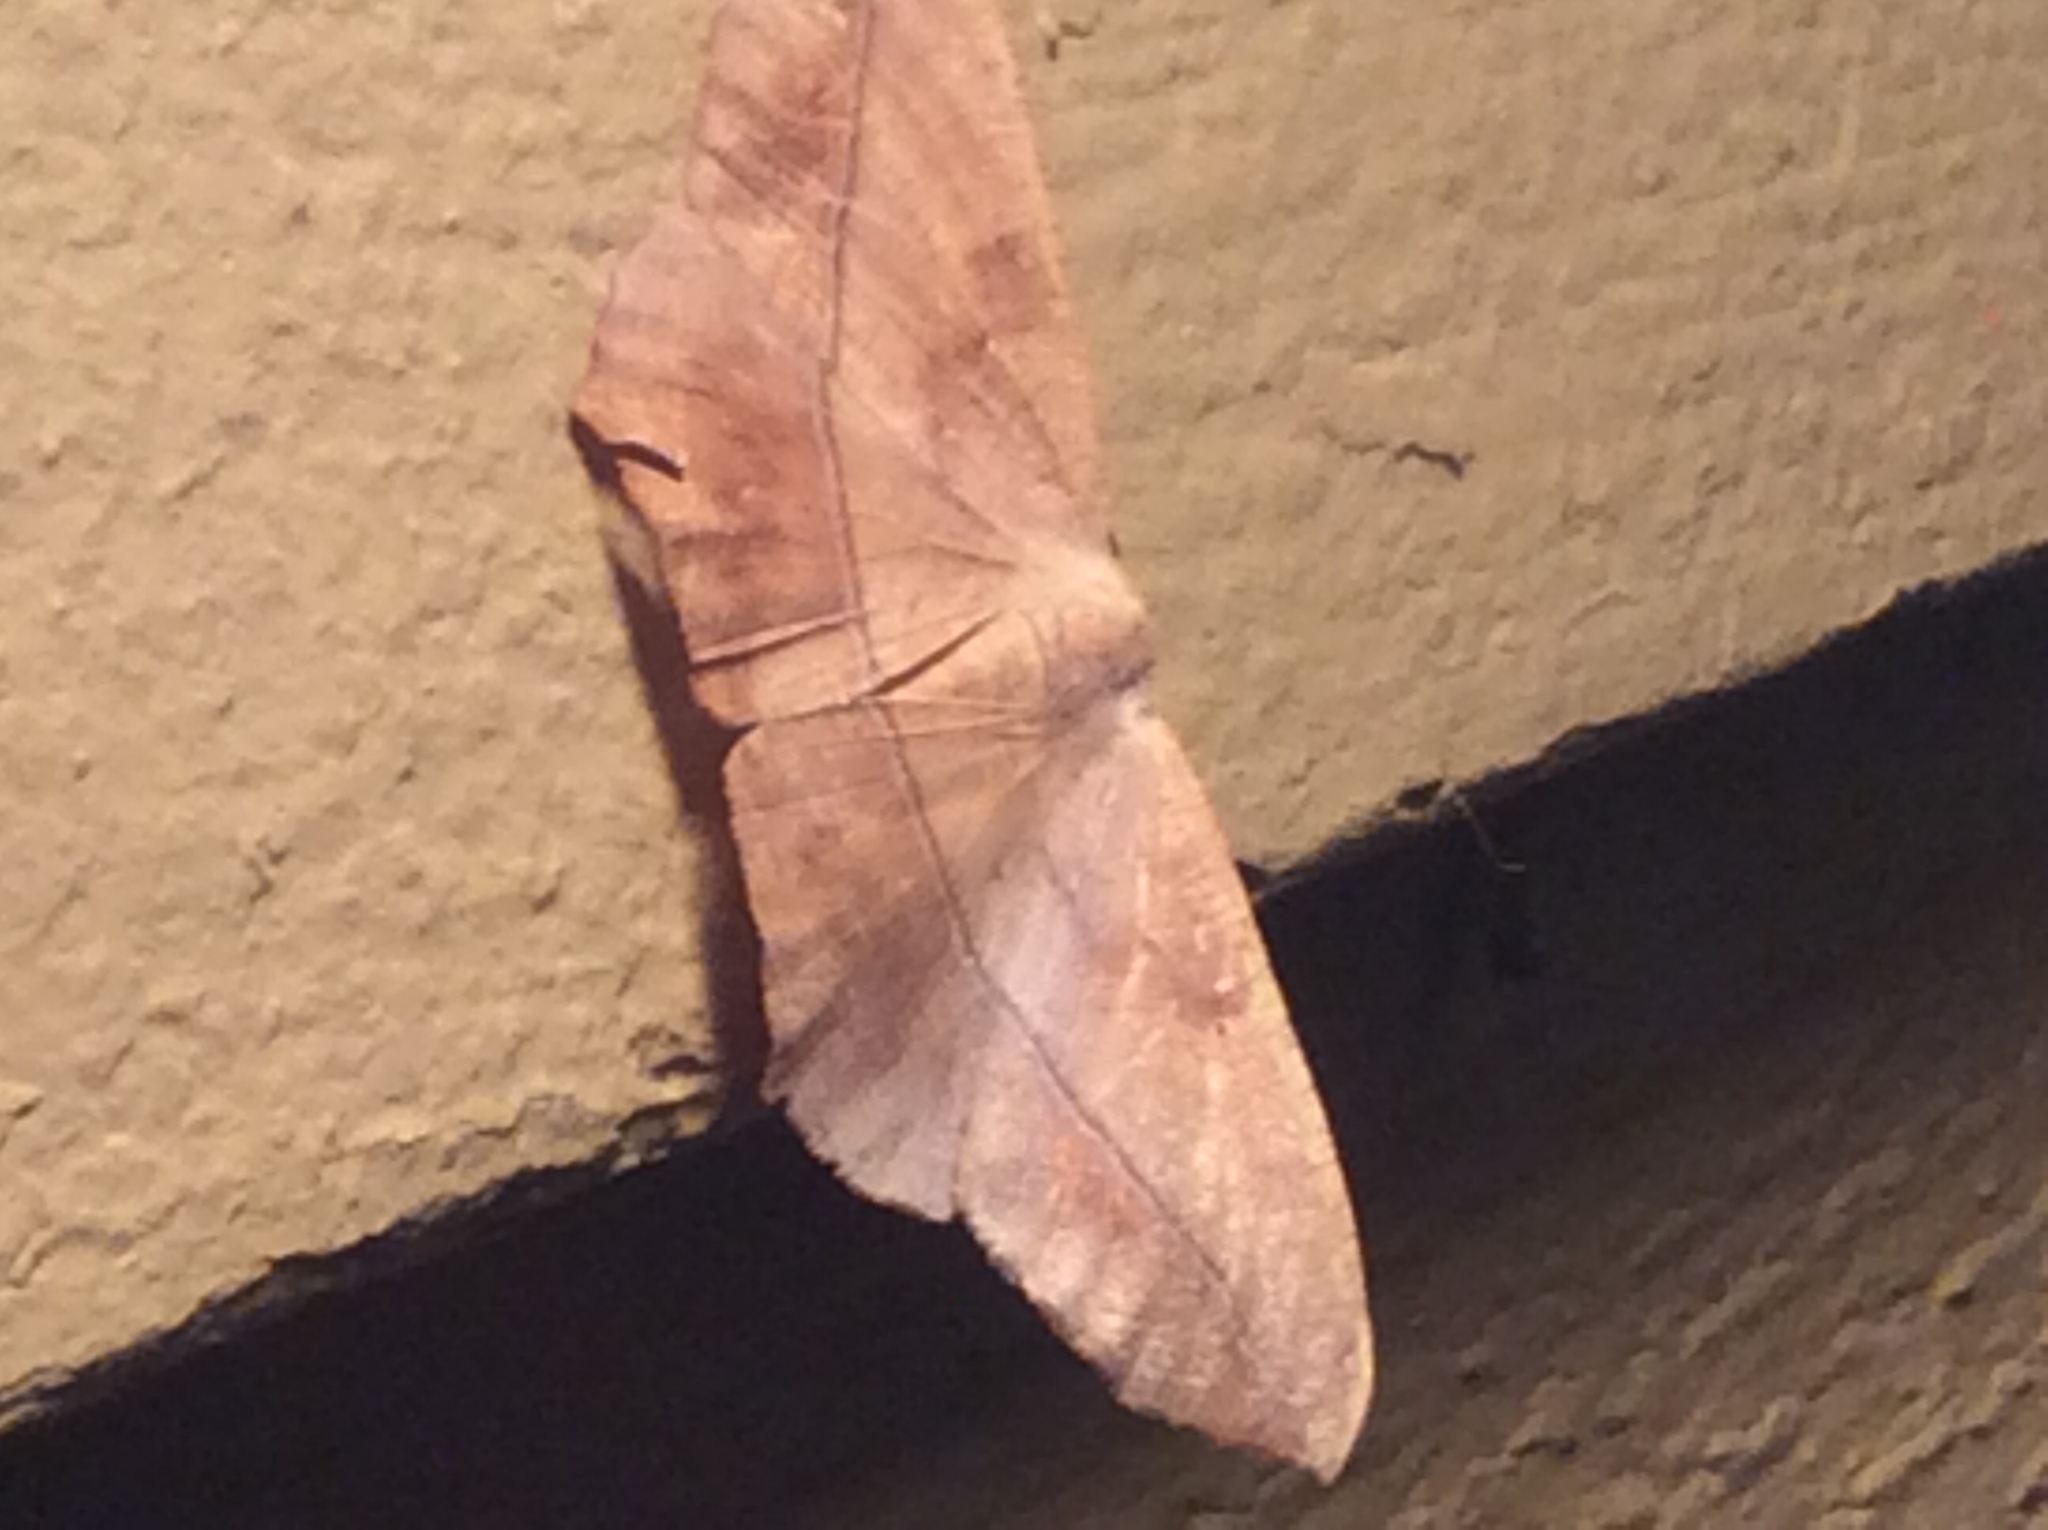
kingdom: Animalia
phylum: Arthropoda
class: Insecta
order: Lepidoptera
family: Geometridae
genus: Prochoerodes
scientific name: Prochoerodes lineola
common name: Large maple spanworm
